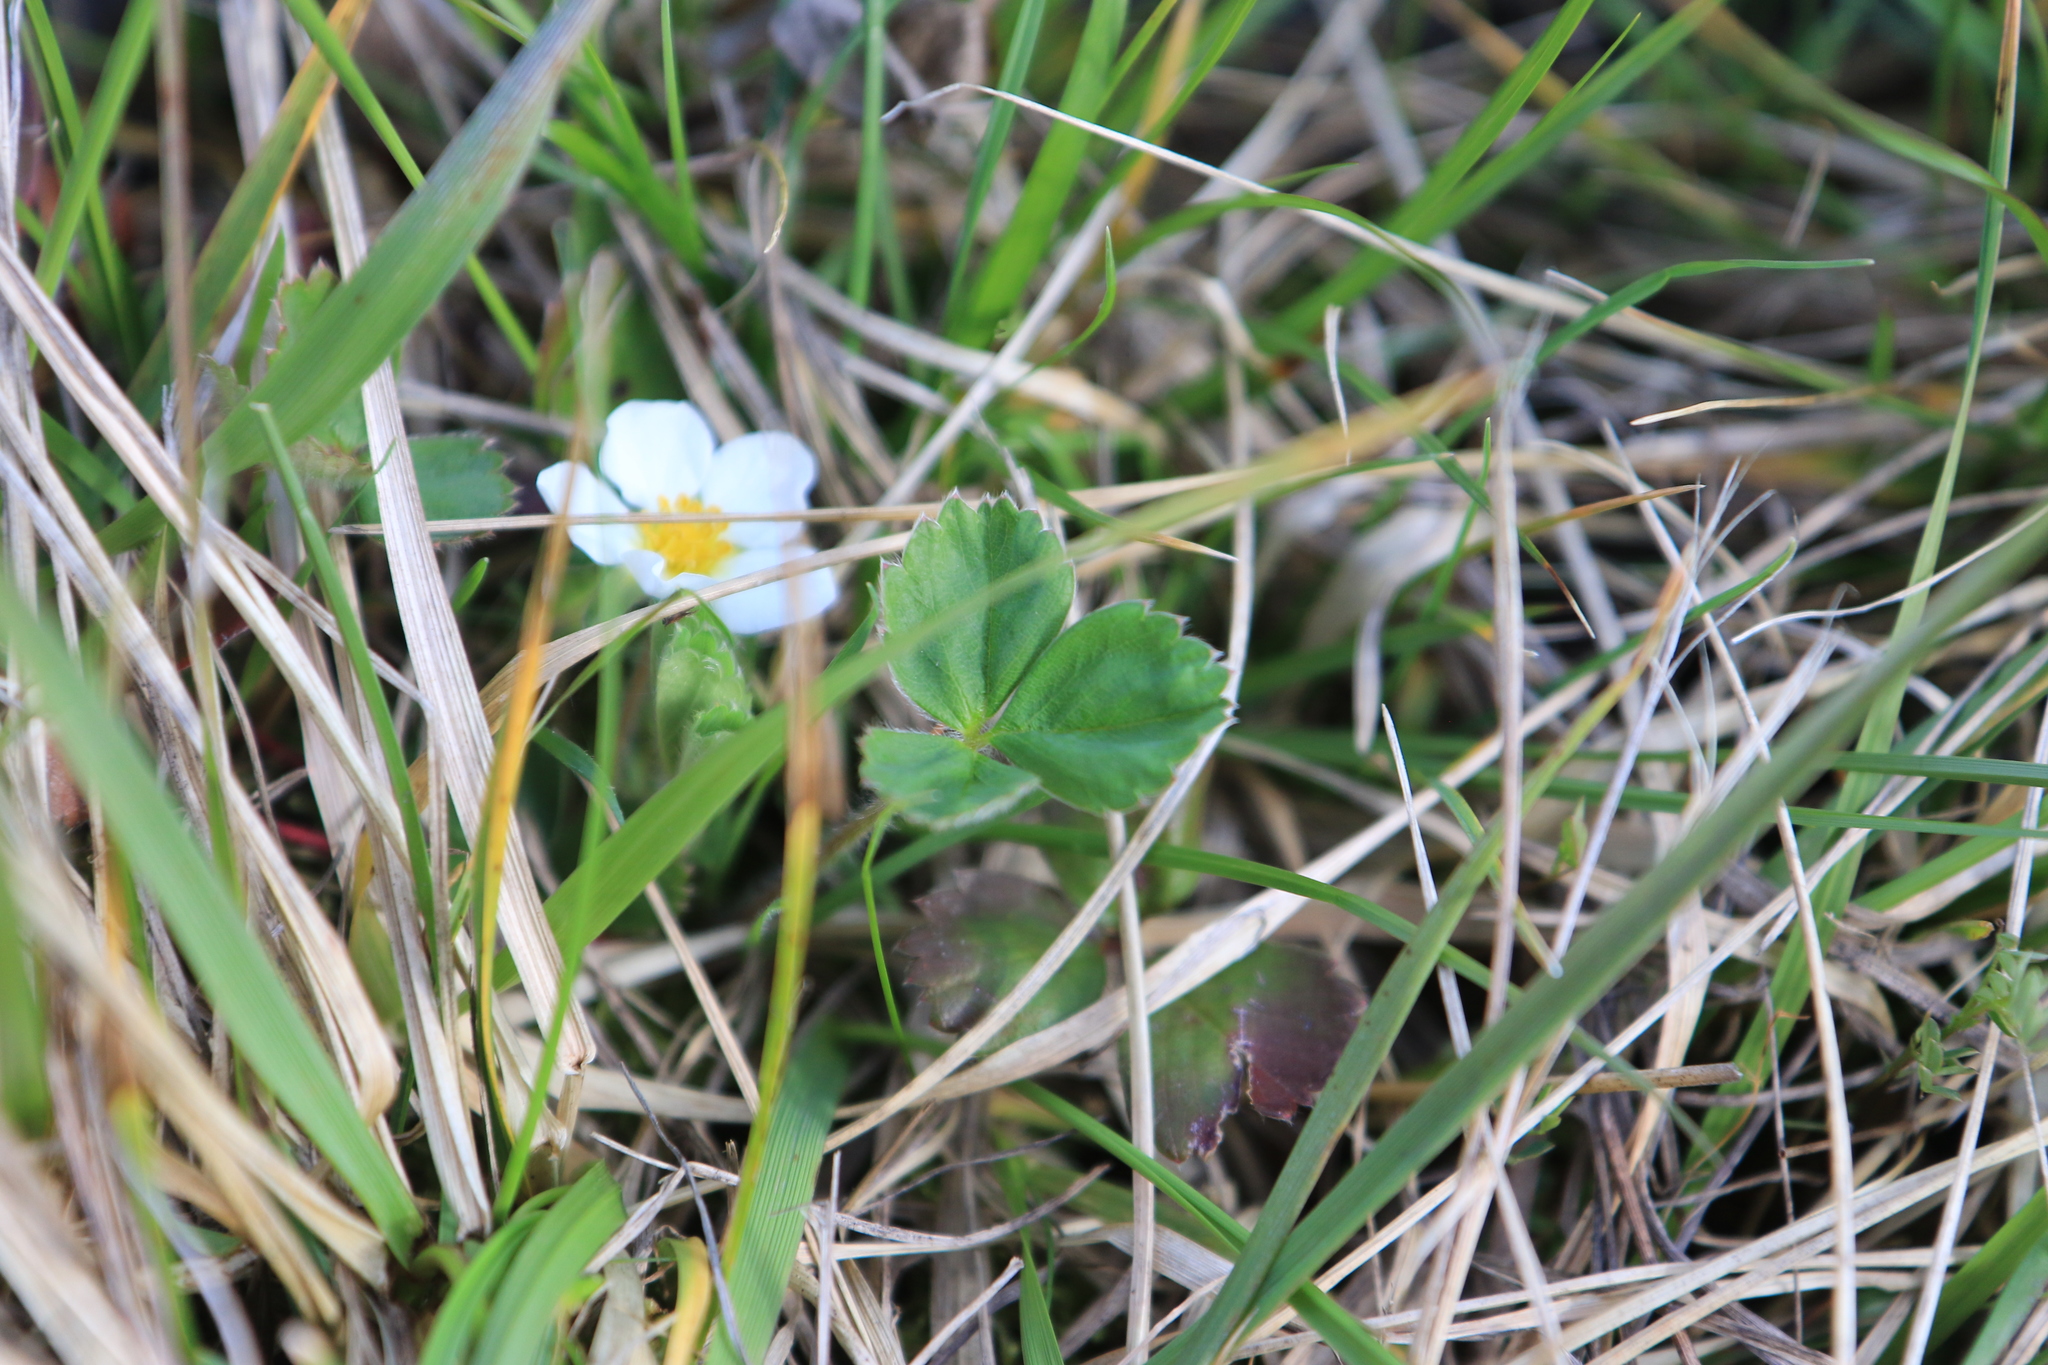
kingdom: Plantae
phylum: Tracheophyta
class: Magnoliopsida
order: Rosales
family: Rosaceae
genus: Fragaria
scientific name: Fragaria virginiana
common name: Thickleaved wild strawberry
